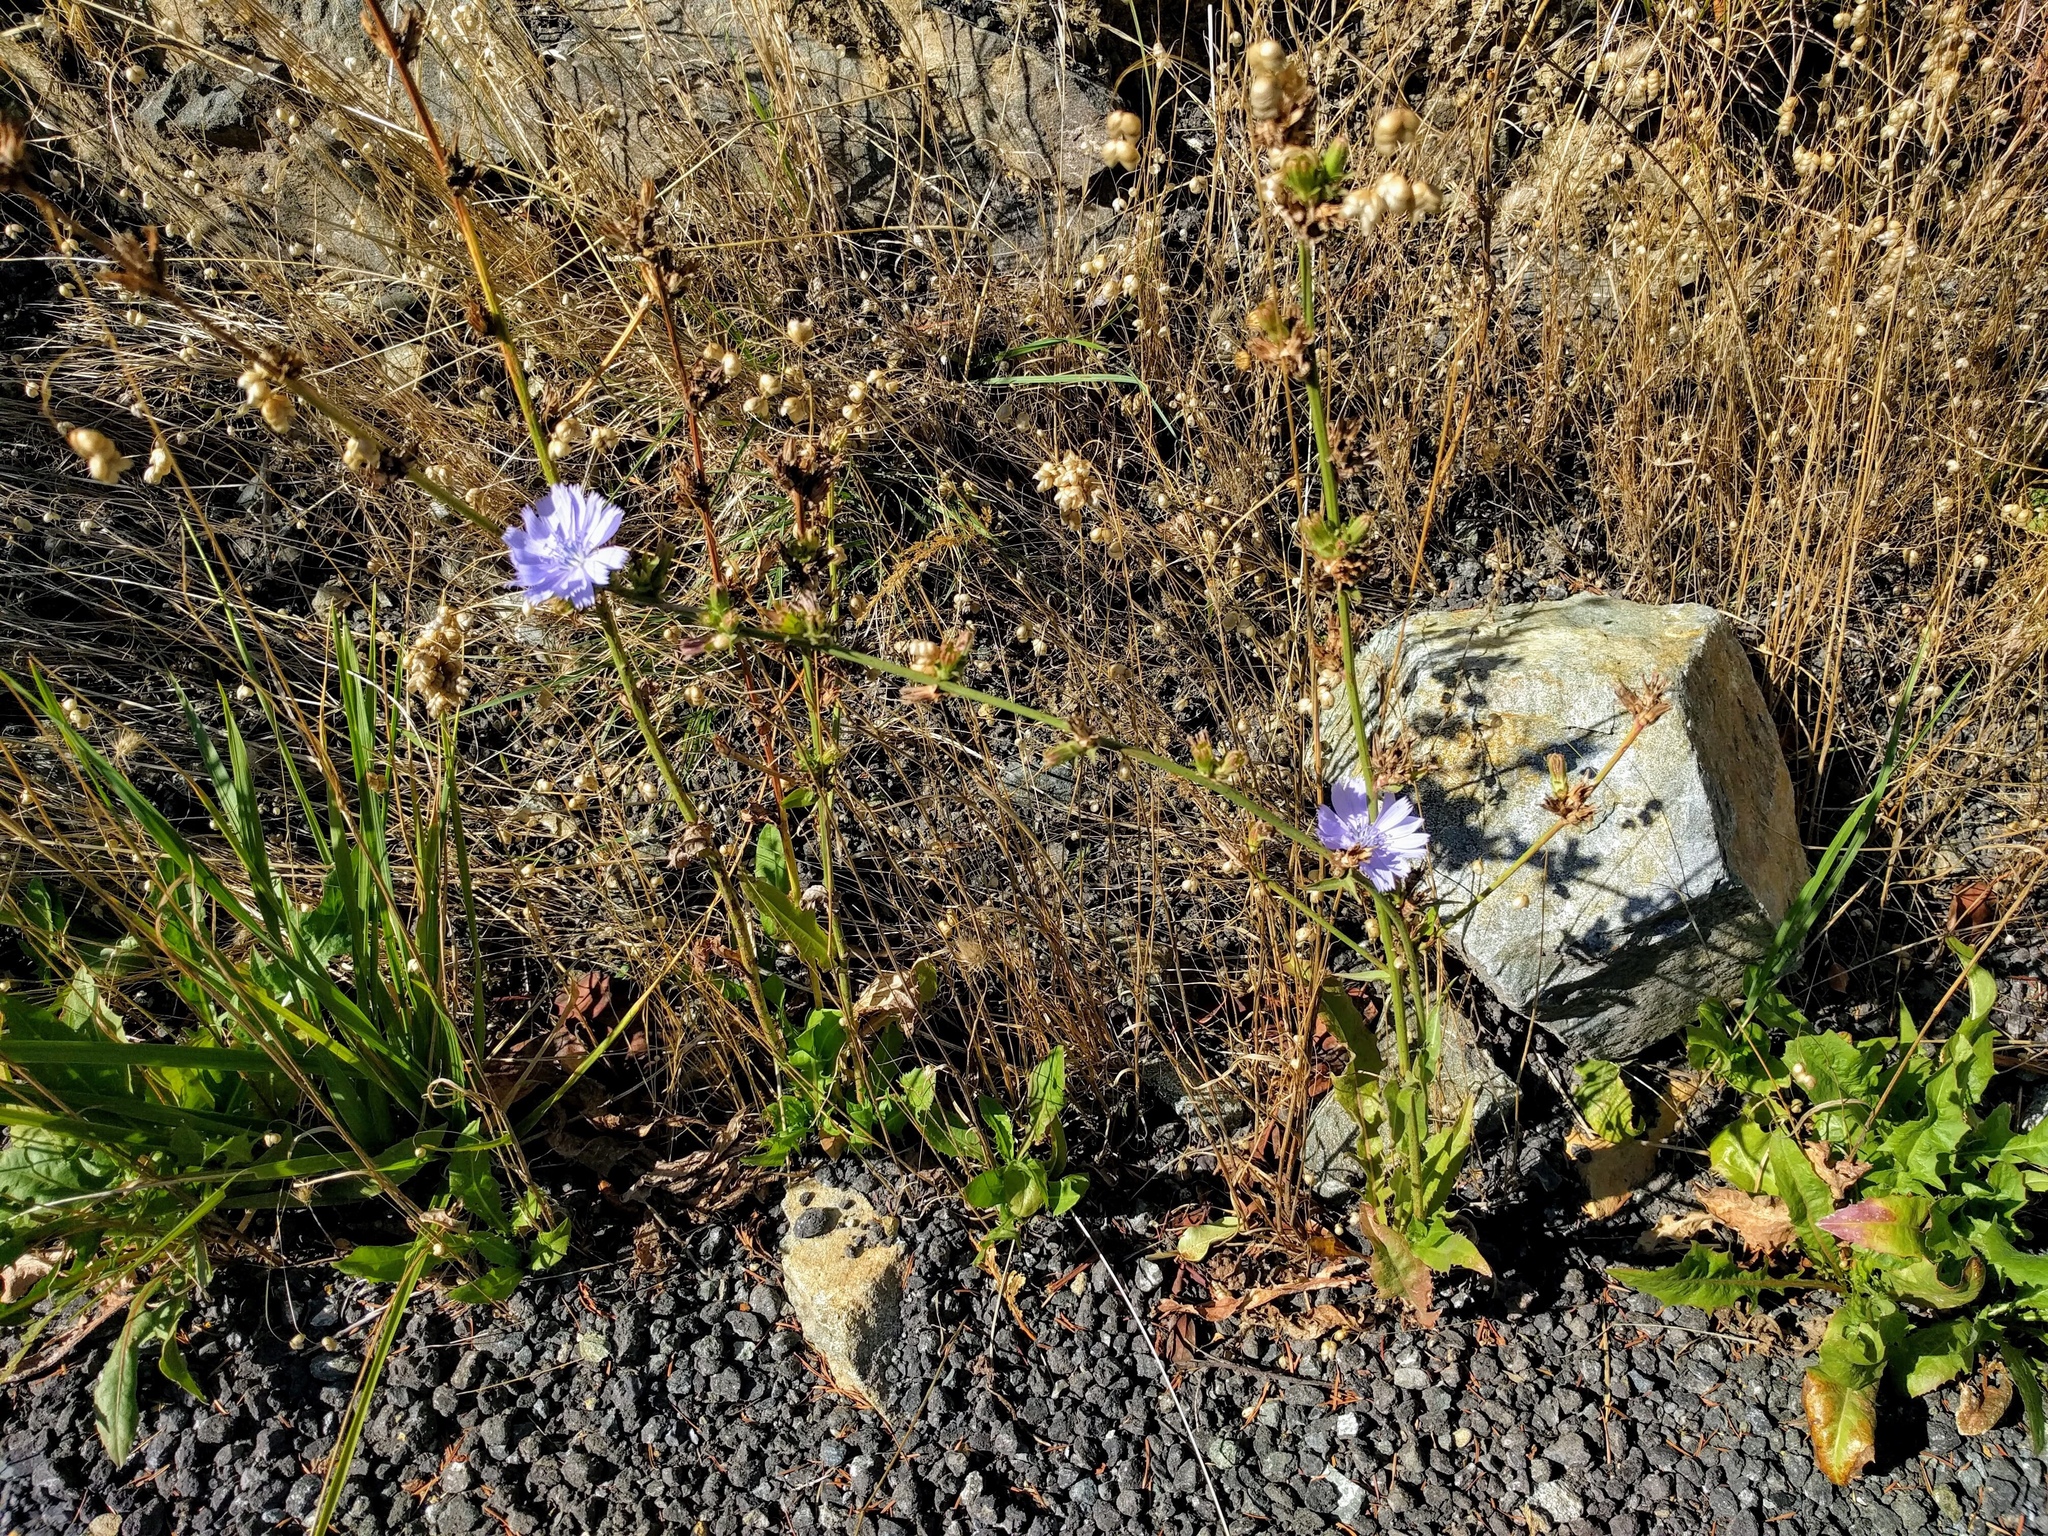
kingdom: Plantae
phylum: Tracheophyta
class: Magnoliopsida
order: Asterales
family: Asteraceae
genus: Cichorium
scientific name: Cichorium intybus
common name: Chicory
